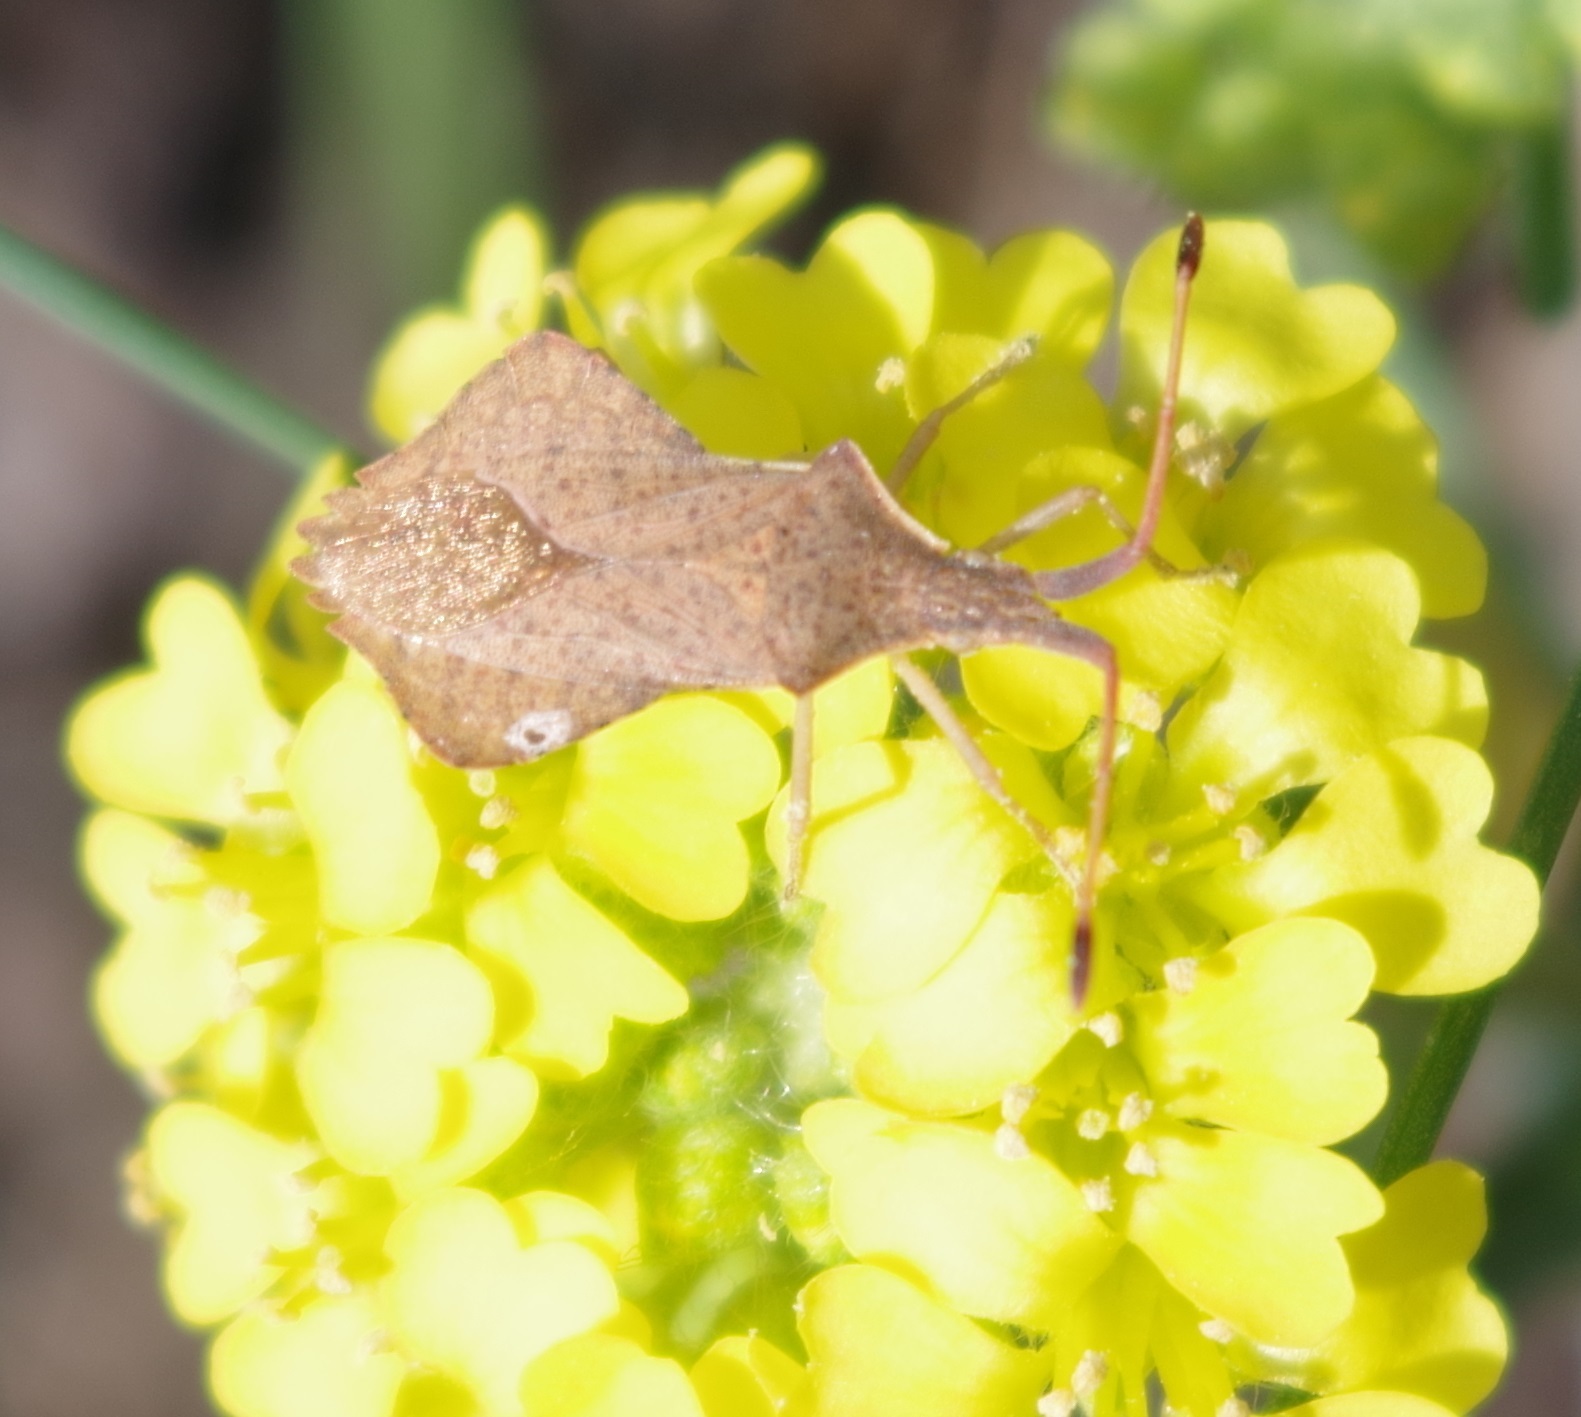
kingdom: Animalia
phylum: Arthropoda
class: Insecta
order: Hemiptera
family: Coreidae
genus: Syromastus
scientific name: Syromastus rhombeus
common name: Rhombic leatherbug
